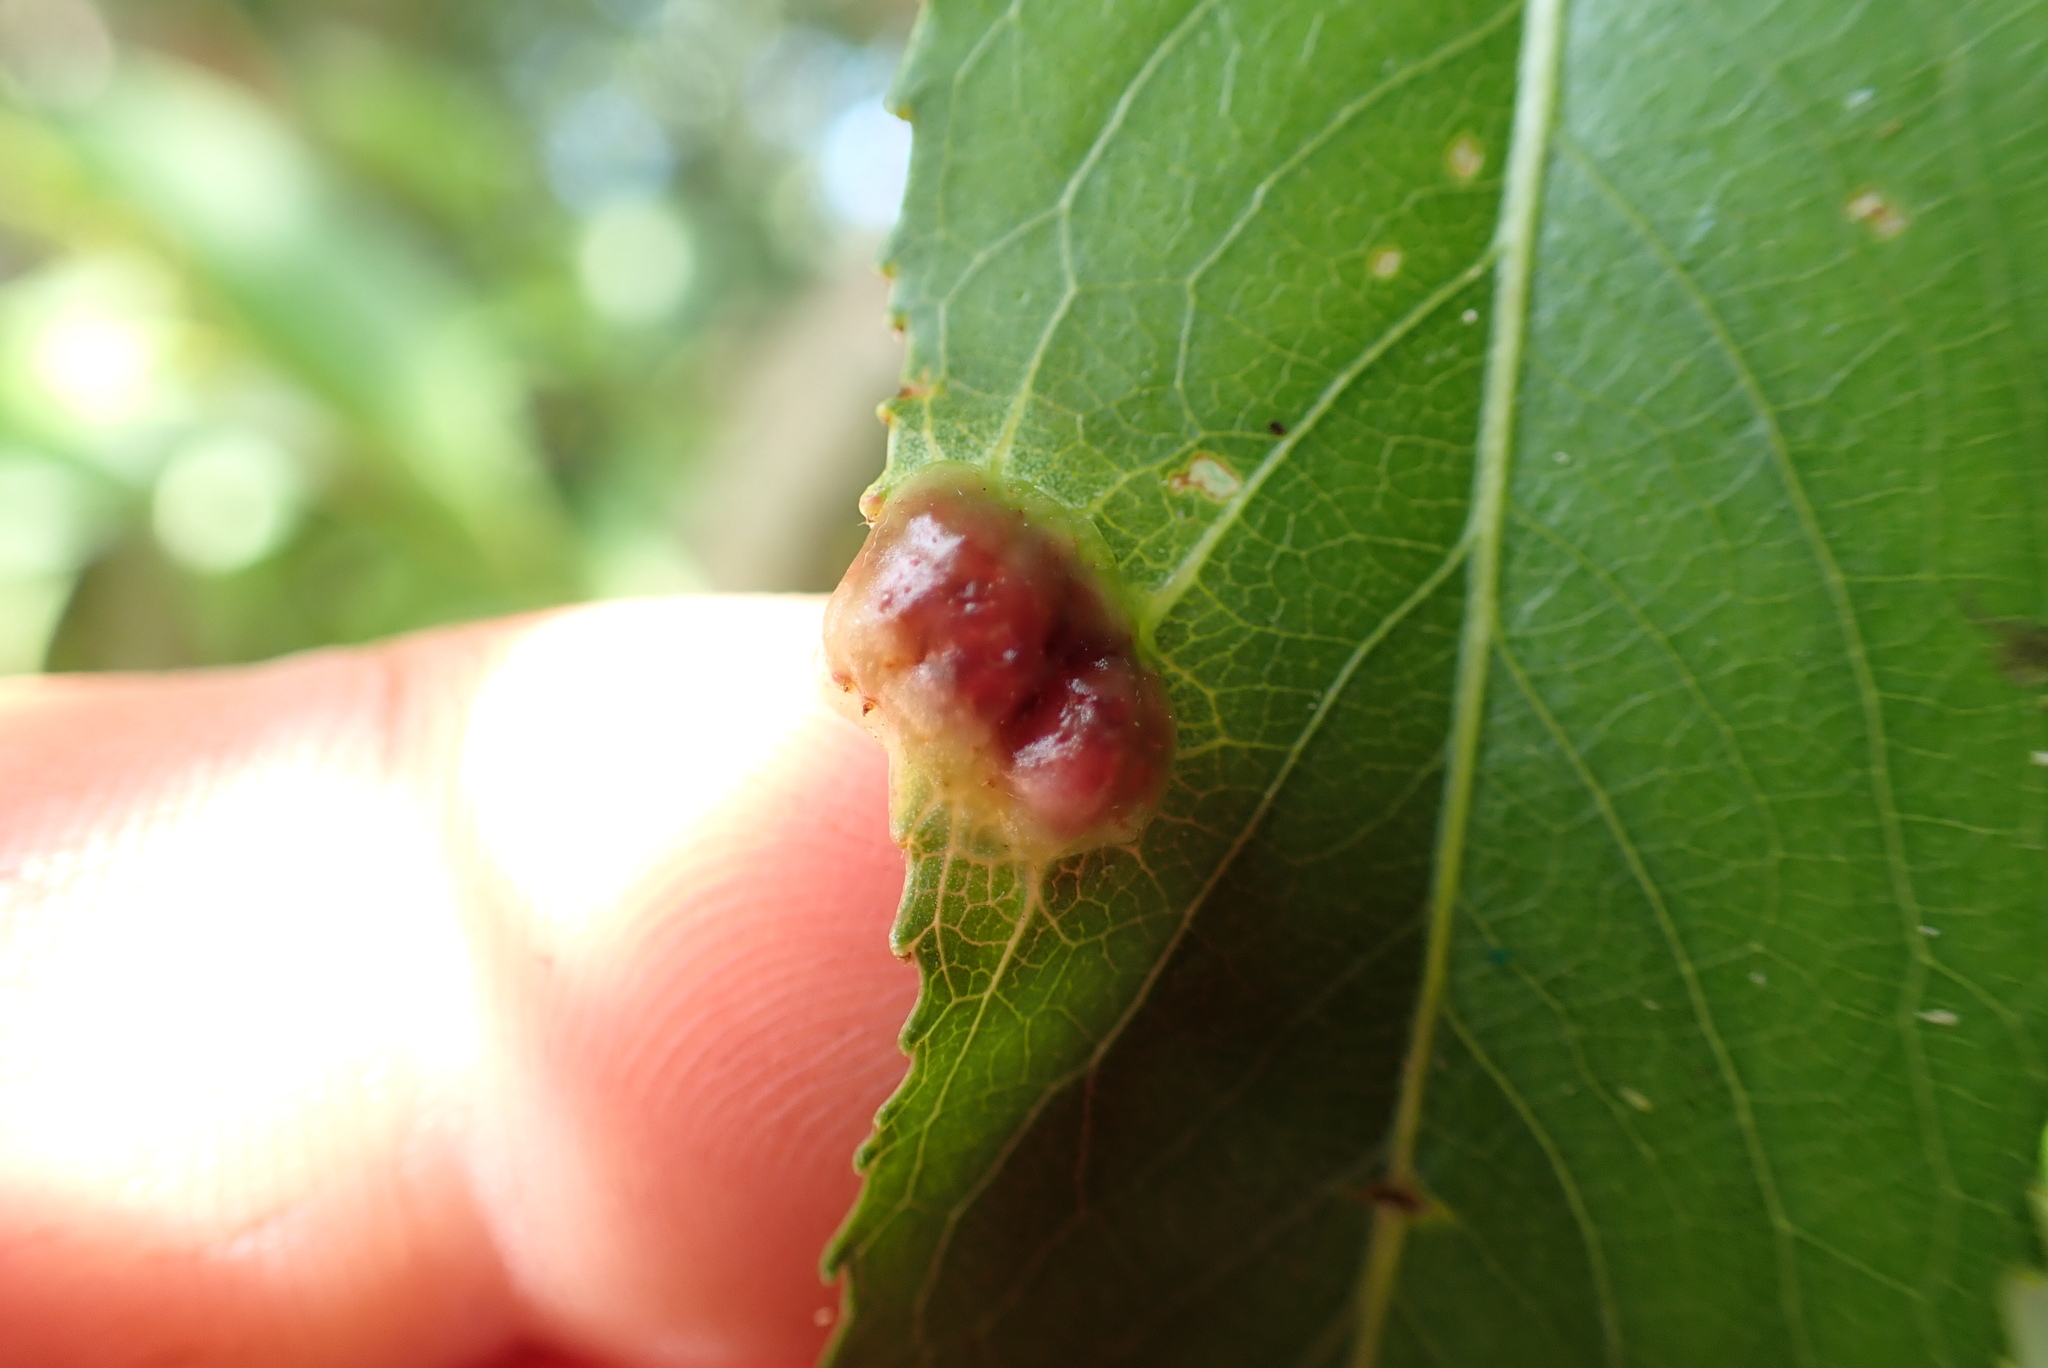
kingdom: Animalia
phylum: Arthropoda
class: Insecta
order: Hymenoptera
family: Tenthredinidae
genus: Pontania
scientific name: Pontania proxima
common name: Common sawfly
